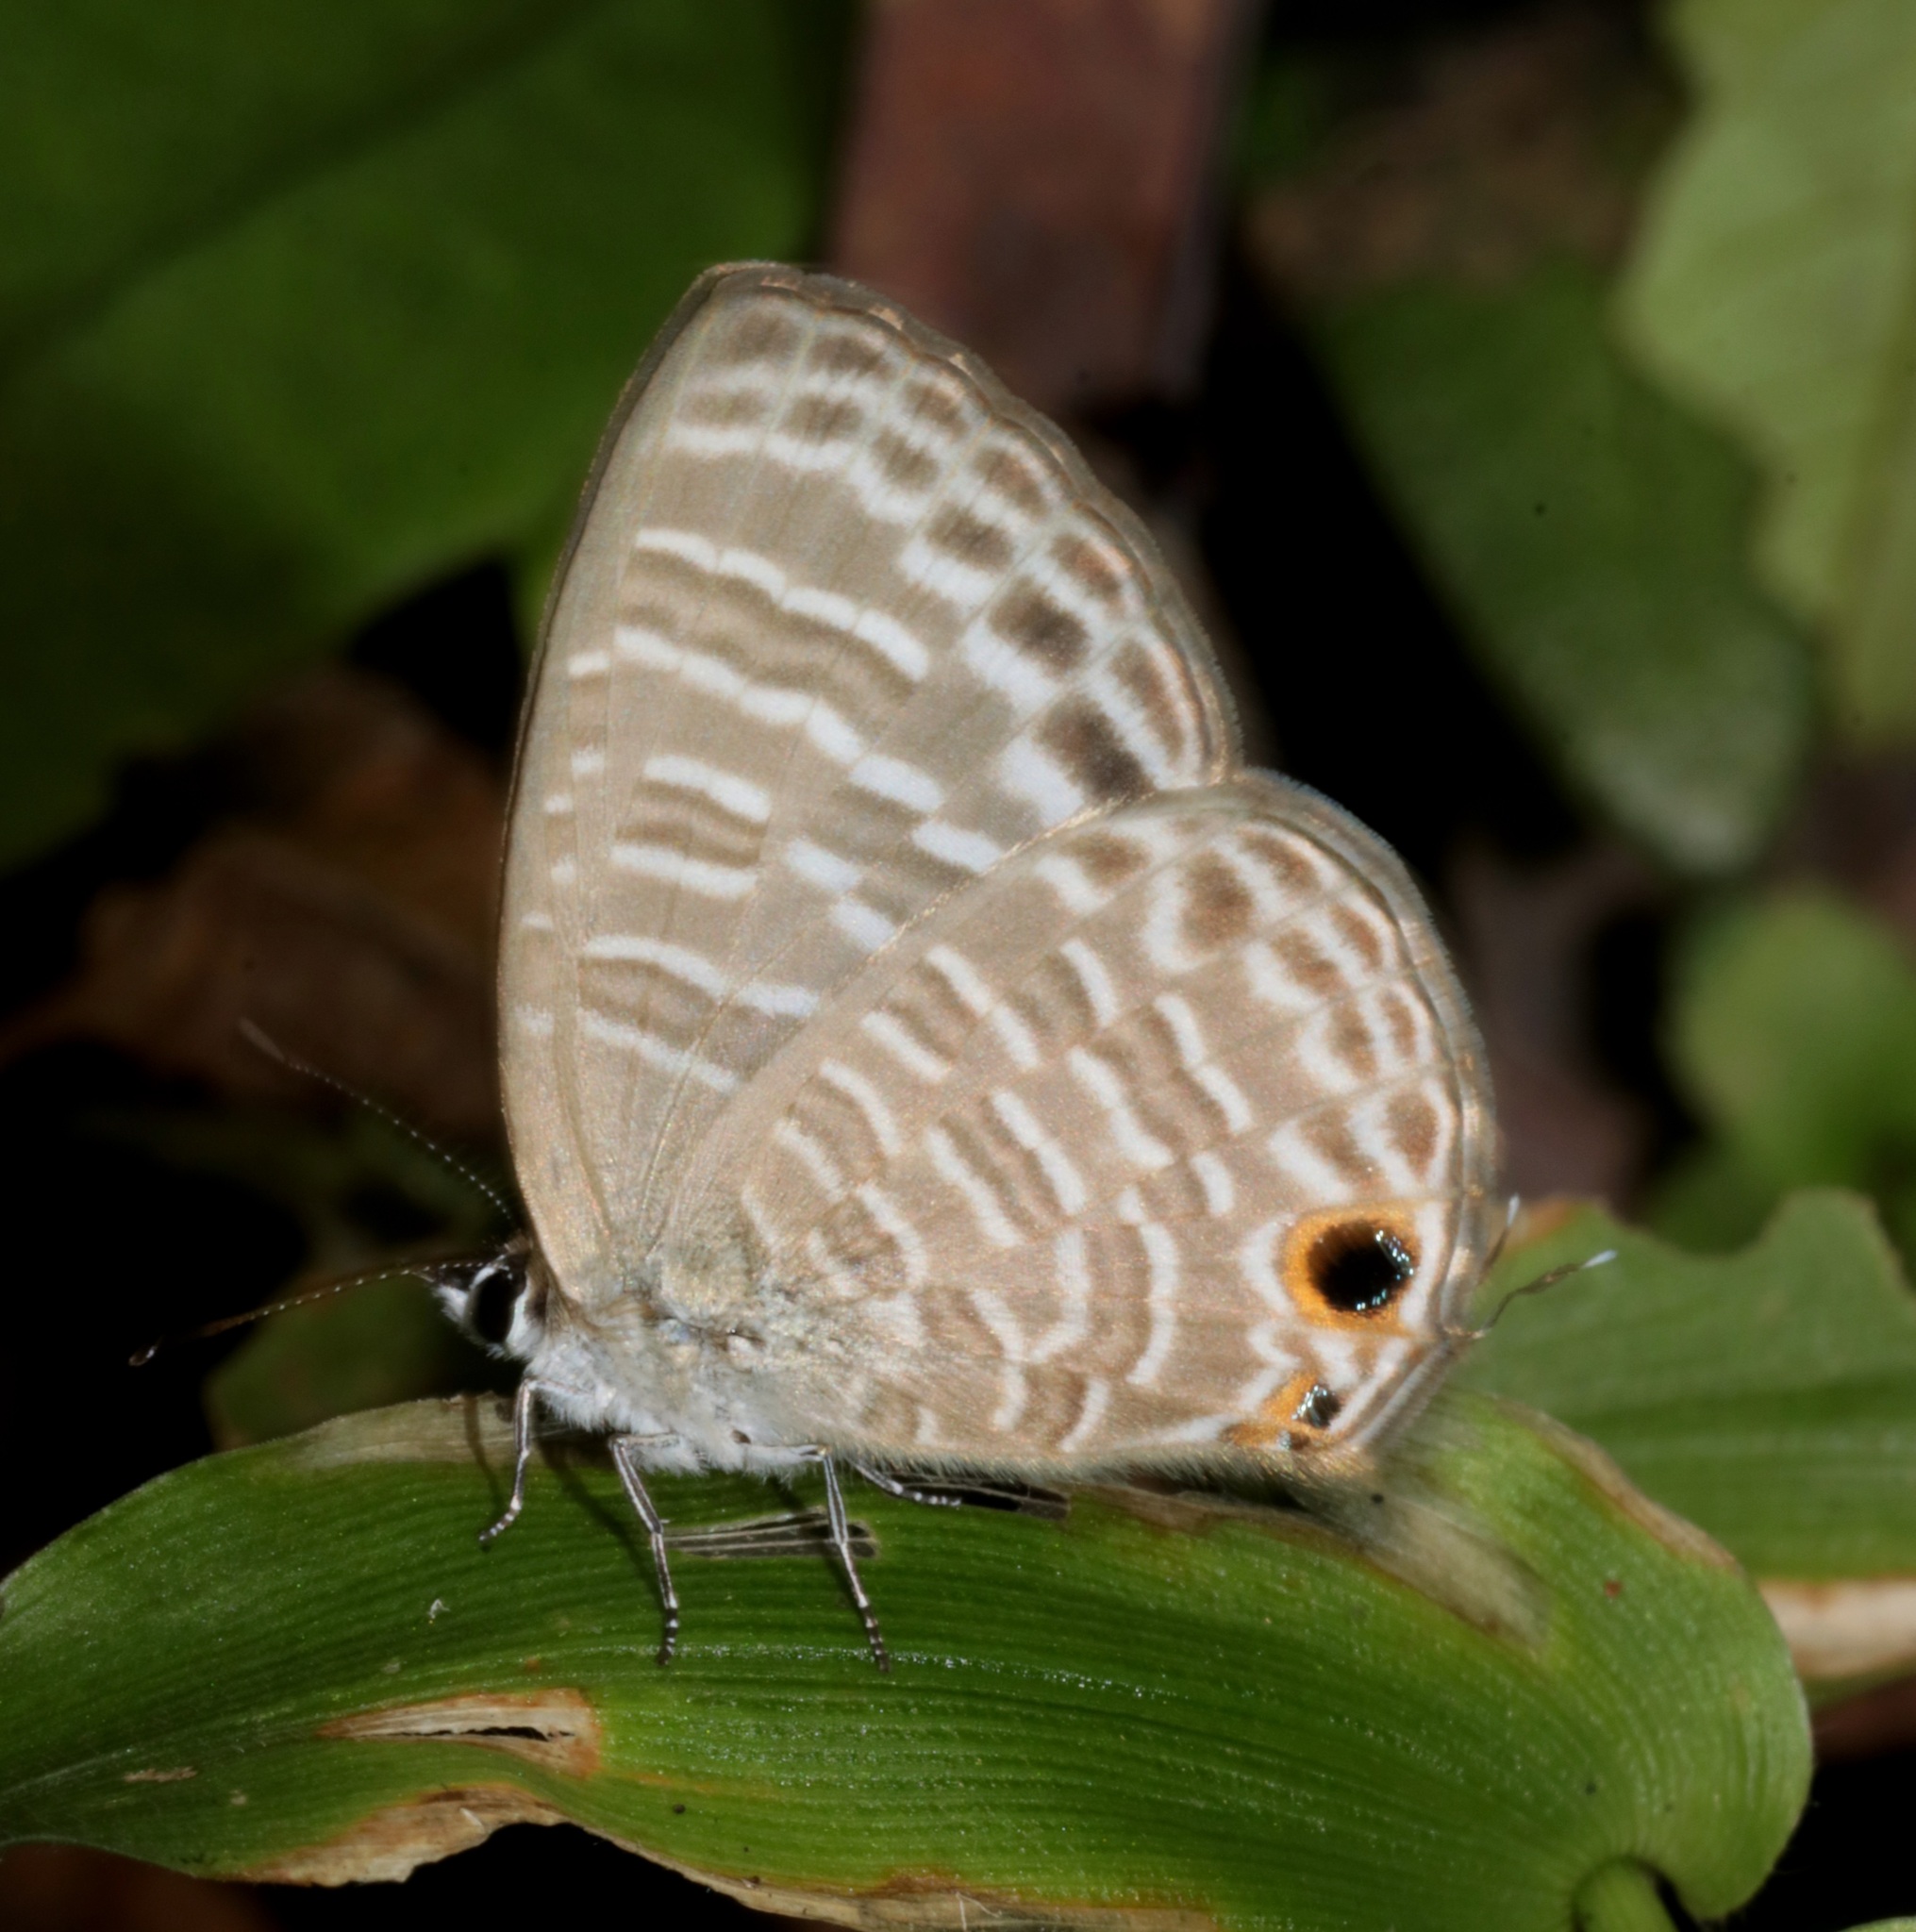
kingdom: Animalia
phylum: Arthropoda
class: Insecta
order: Lepidoptera
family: Lycaenidae
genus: Nacaduba
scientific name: Nacaduba kurava
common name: Transparent 6-line blue
